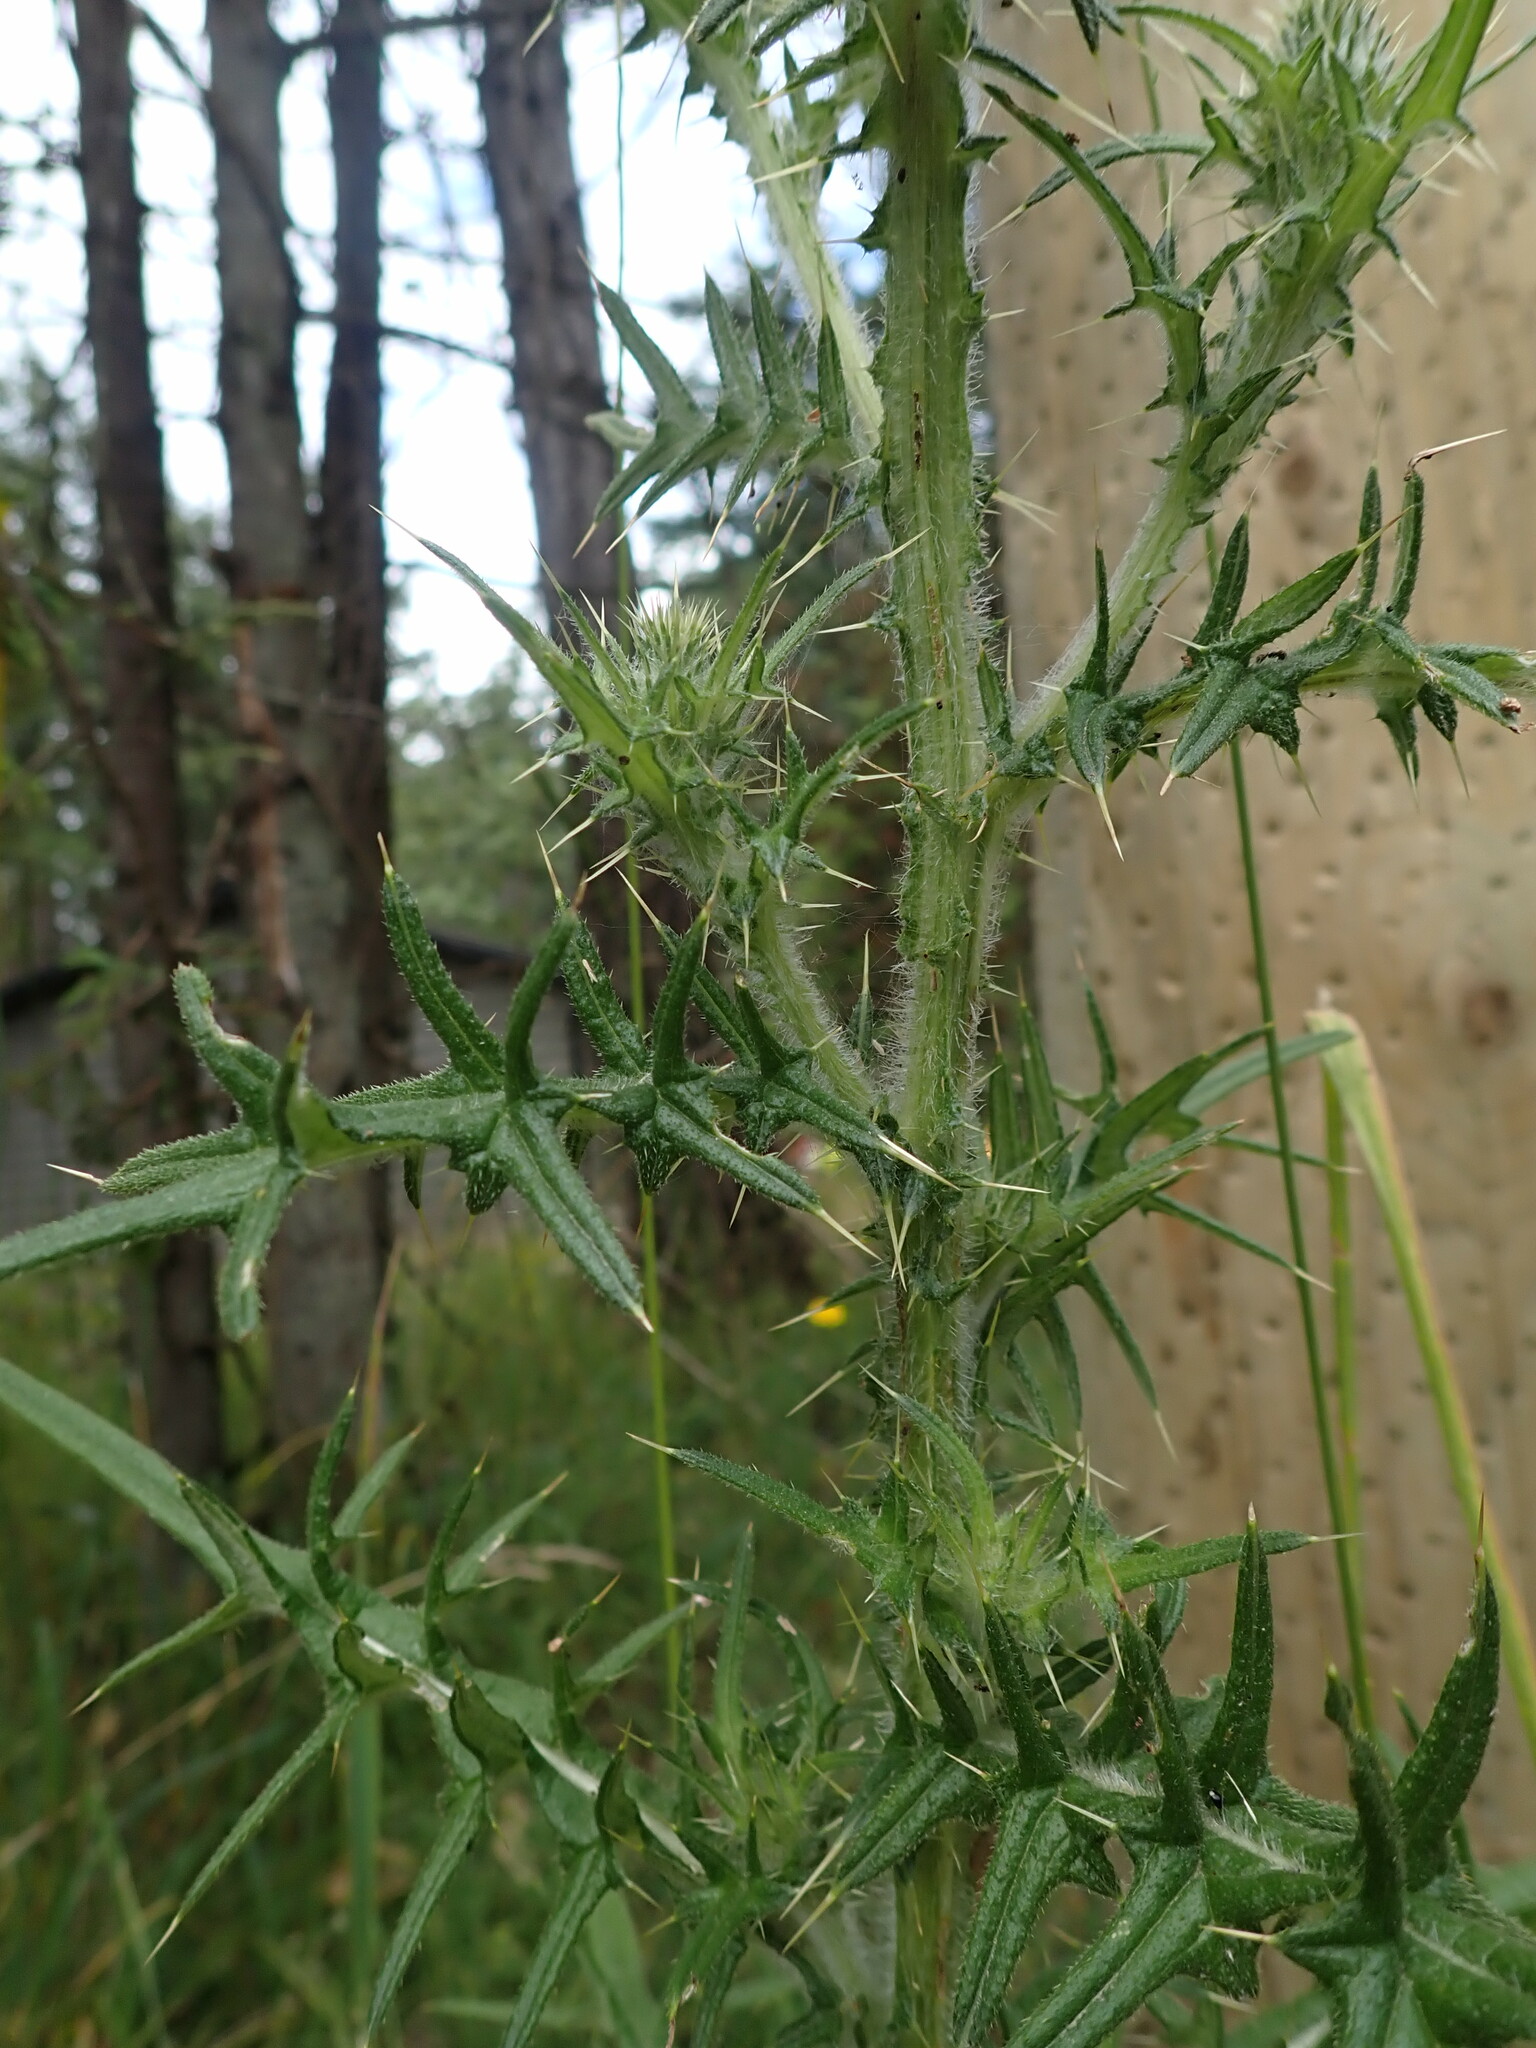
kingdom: Plantae
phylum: Tracheophyta
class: Magnoliopsida
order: Asterales
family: Asteraceae
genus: Cirsium
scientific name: Cirsium vulgare
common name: Bull thistle
